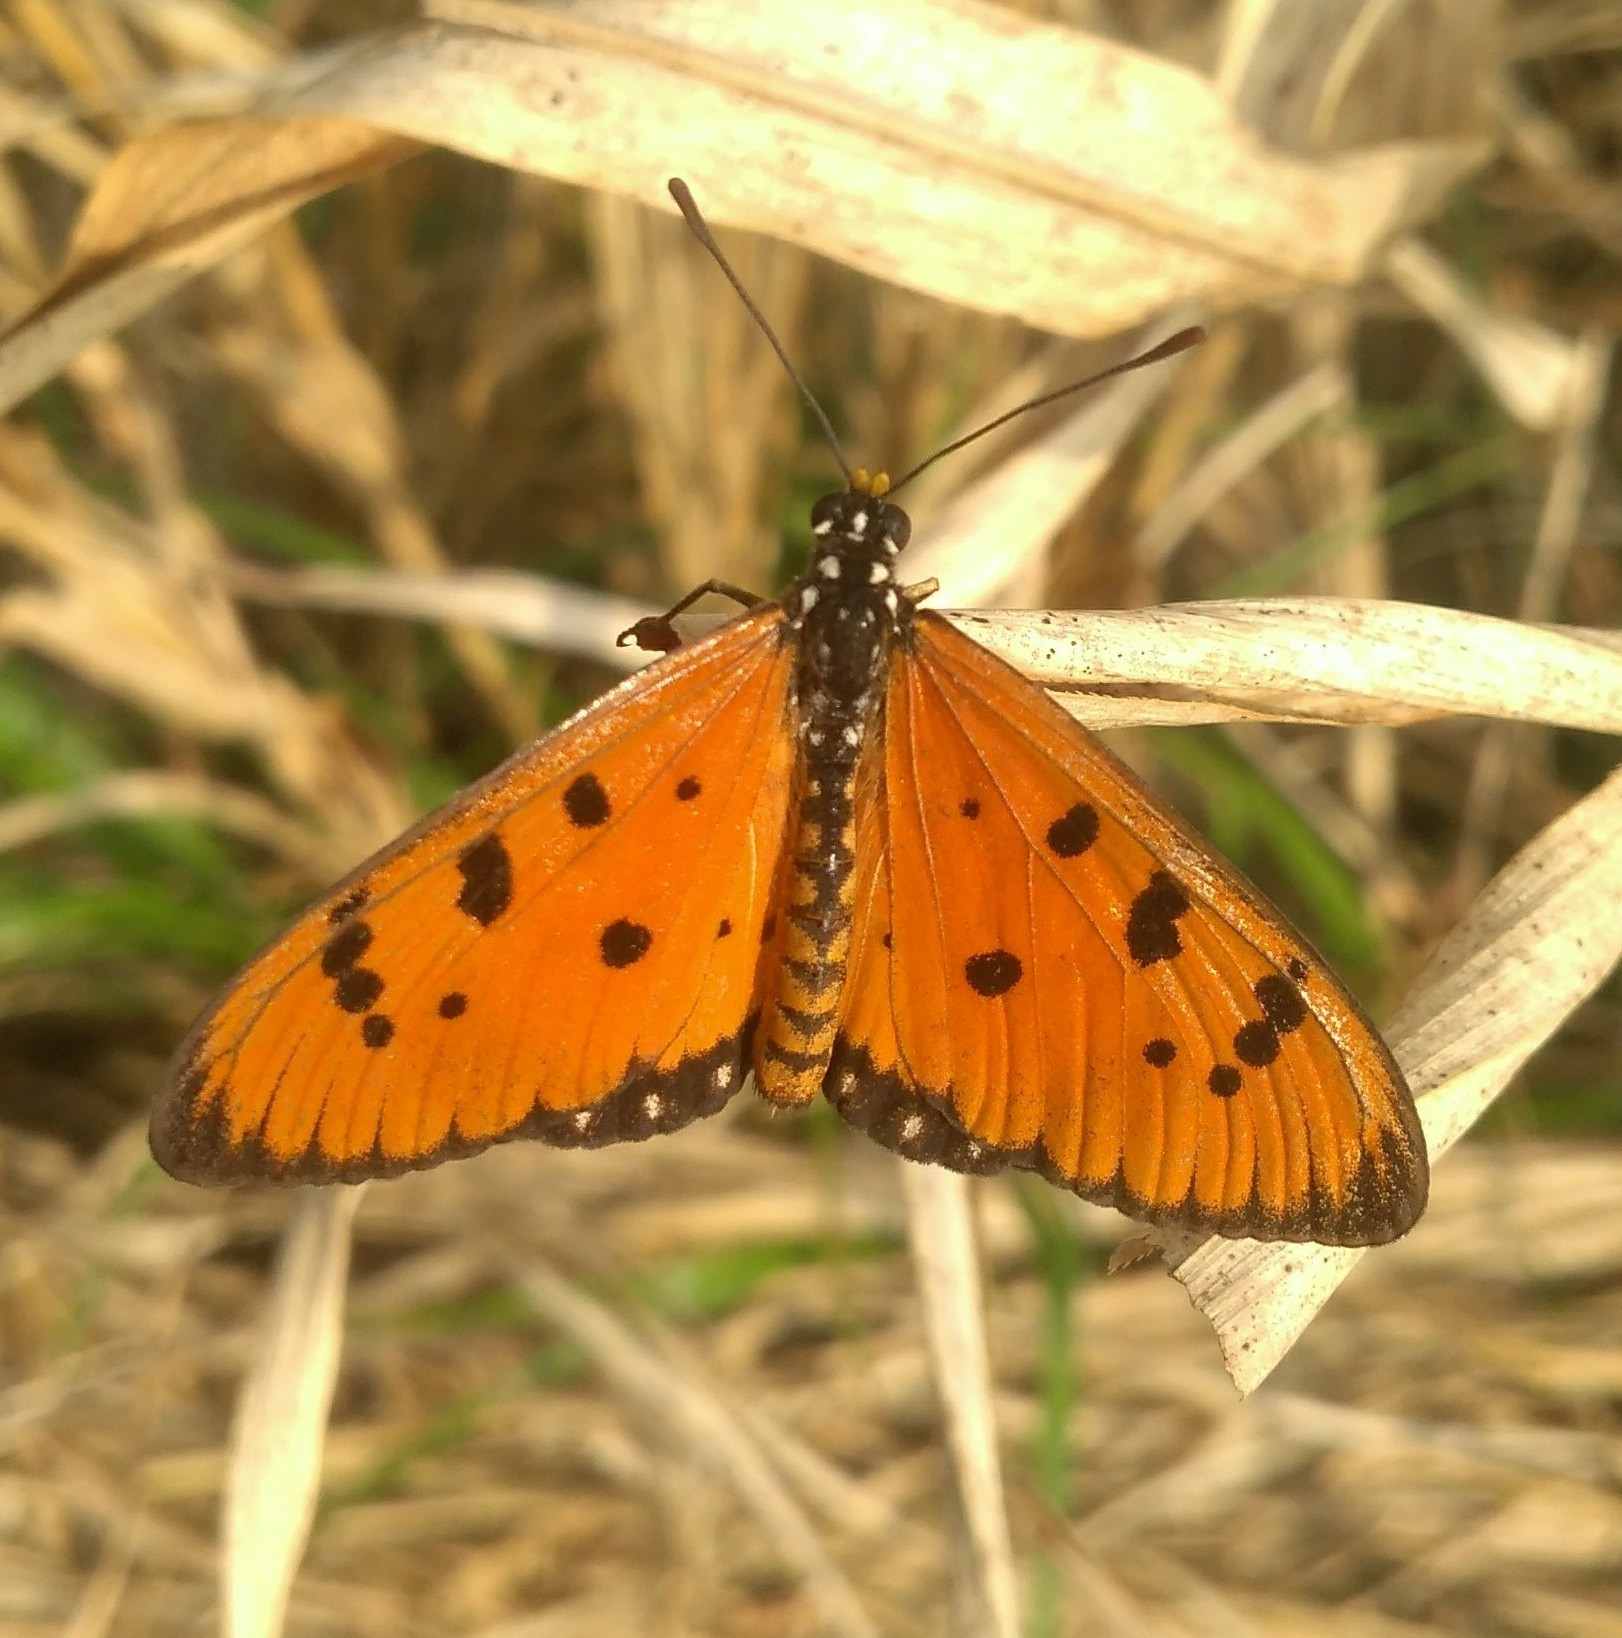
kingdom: Animalia
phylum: Arthropoda
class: Insecta
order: Lepidoptera
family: Nymphalidae
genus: Acraea
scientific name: Acraea terpsicore
